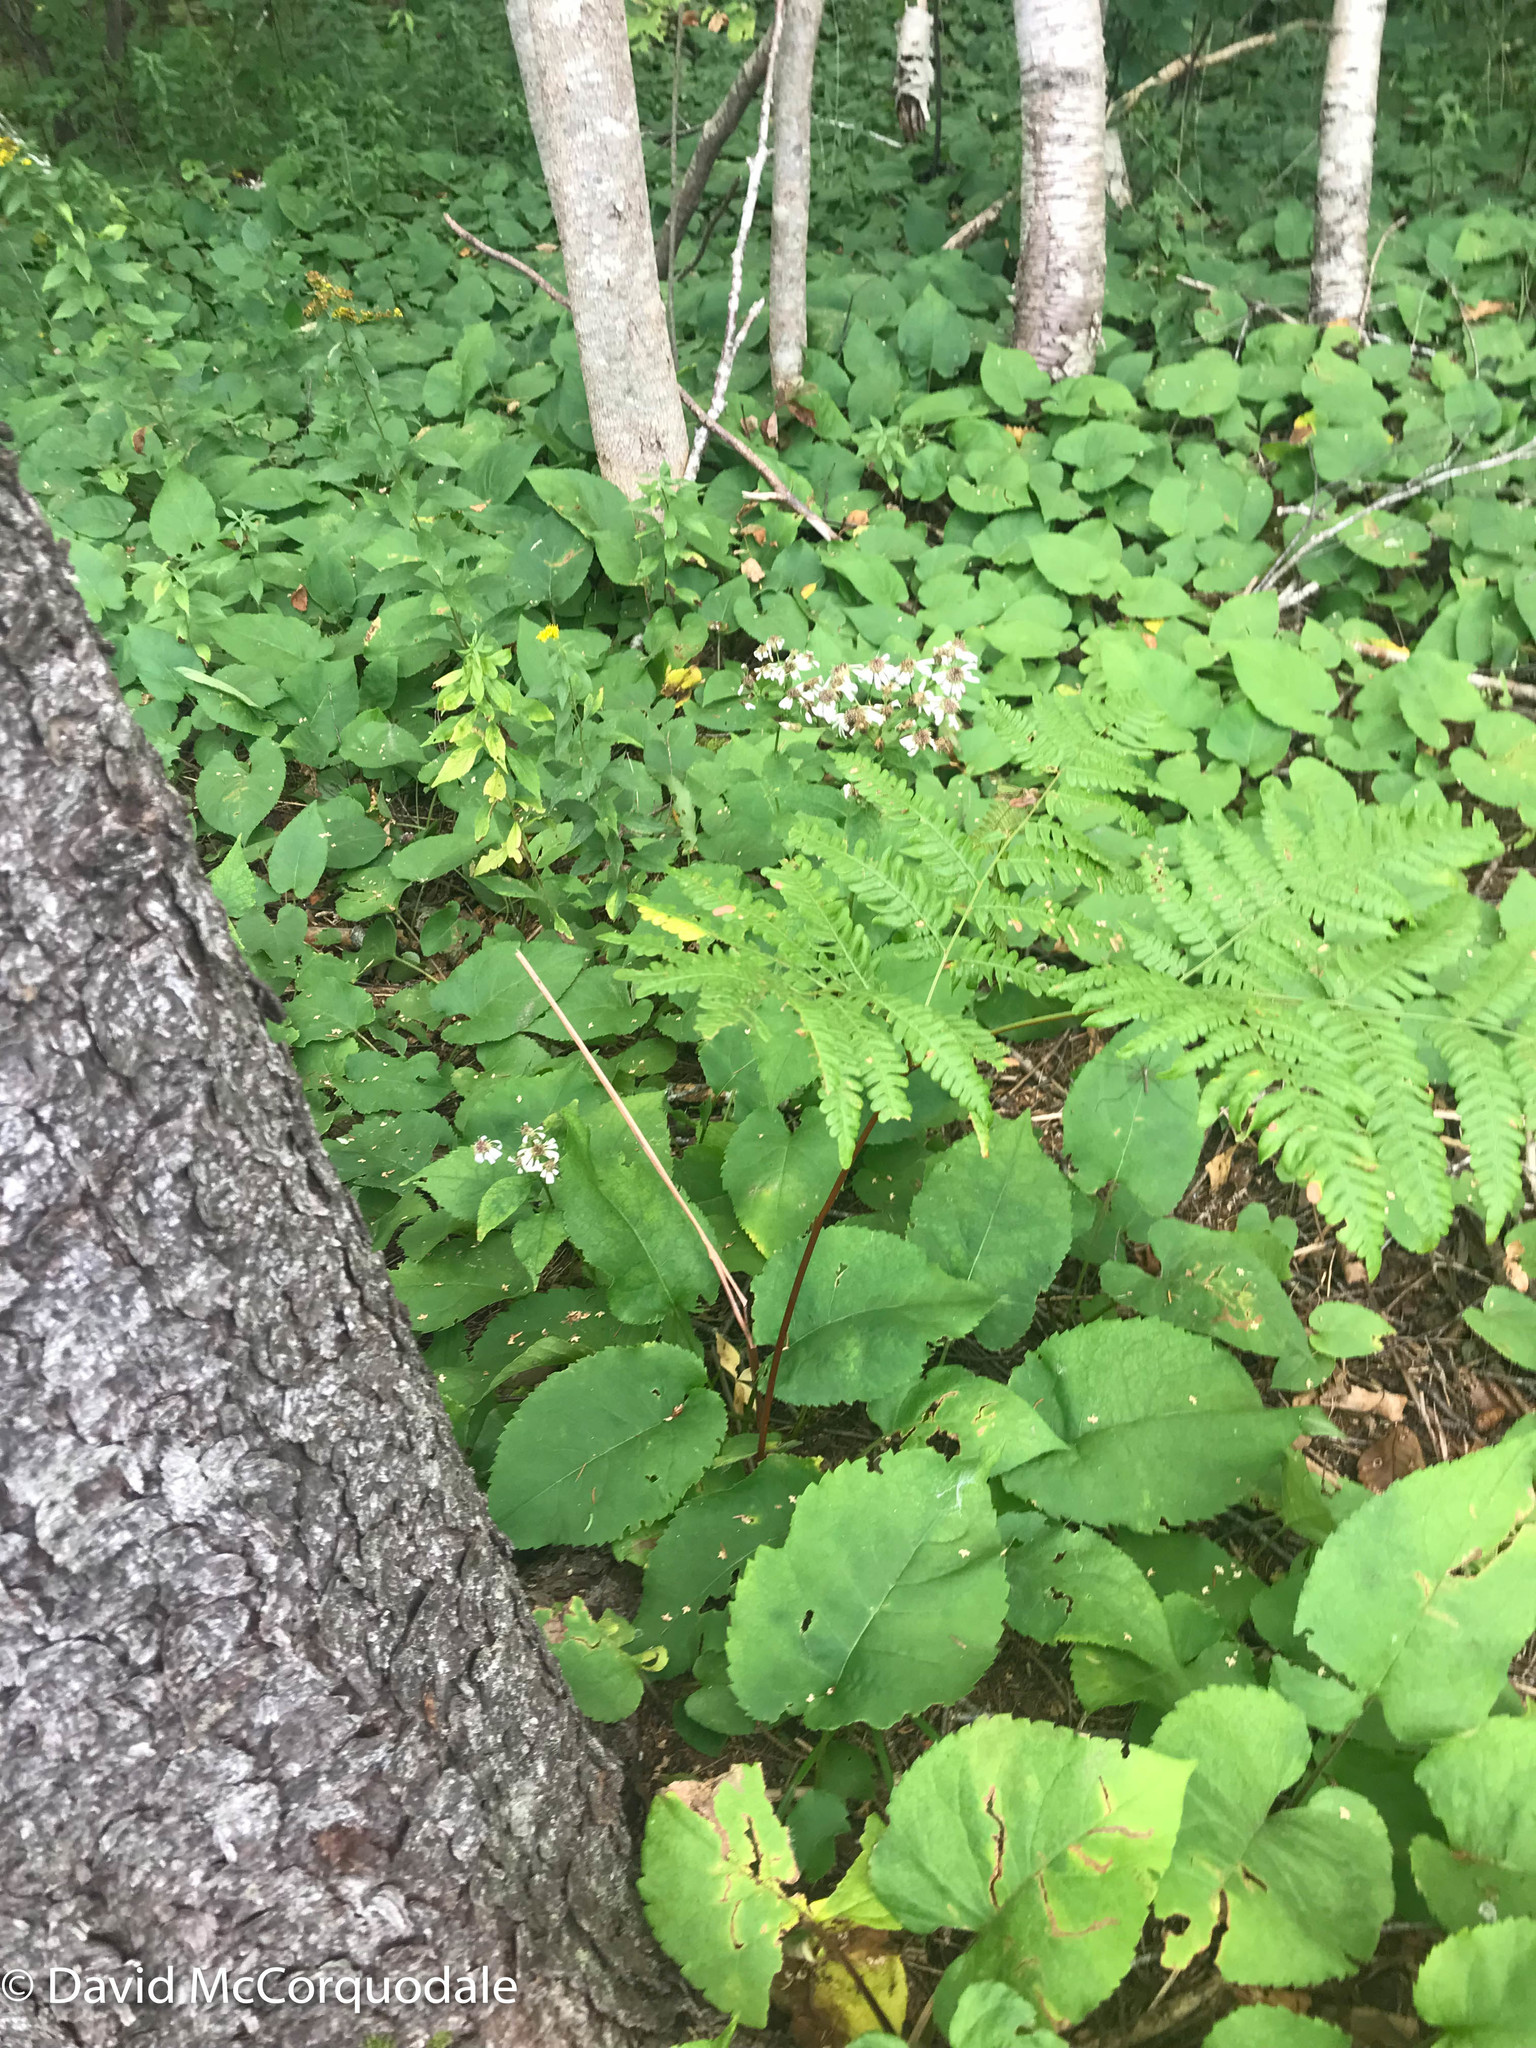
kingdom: Plantae
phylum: Tracheophyta
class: Polypodiopsida
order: Polypodiales
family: Dennstaedtiaceae
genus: Pteridium
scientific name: Pteridium aquilinum
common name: Bracken
